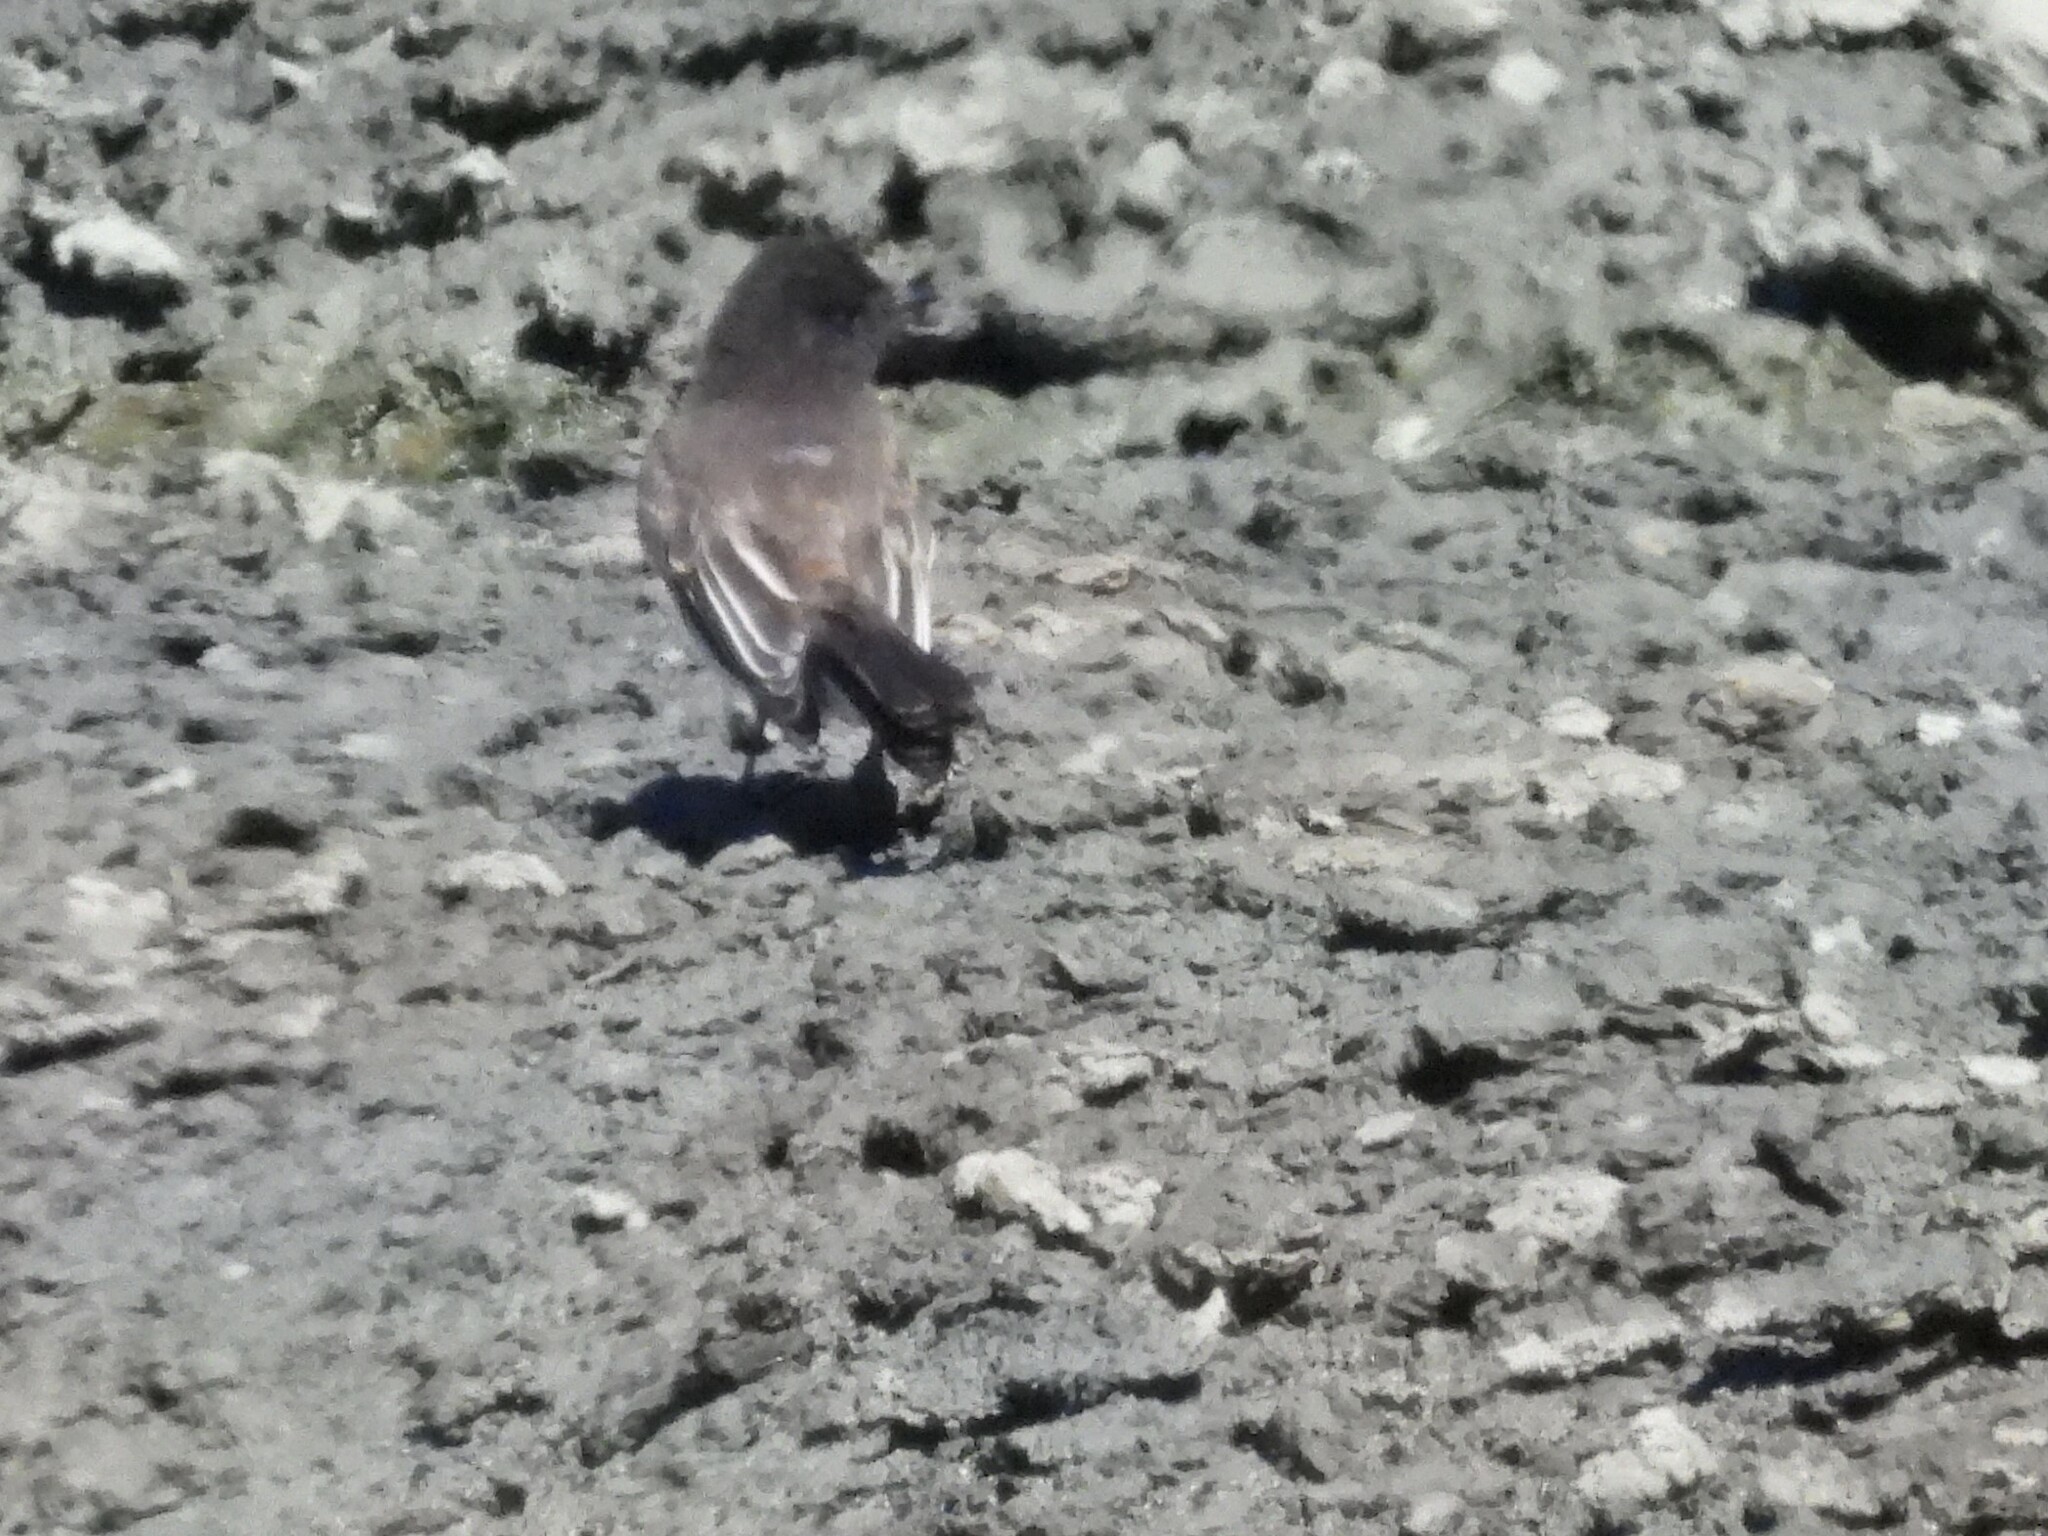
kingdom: Animalia
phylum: Chordata
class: Aves
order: Passeriformes
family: Tyrannidae
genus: Sayornis
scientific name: Sayornis nigricans
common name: Black phoebe
